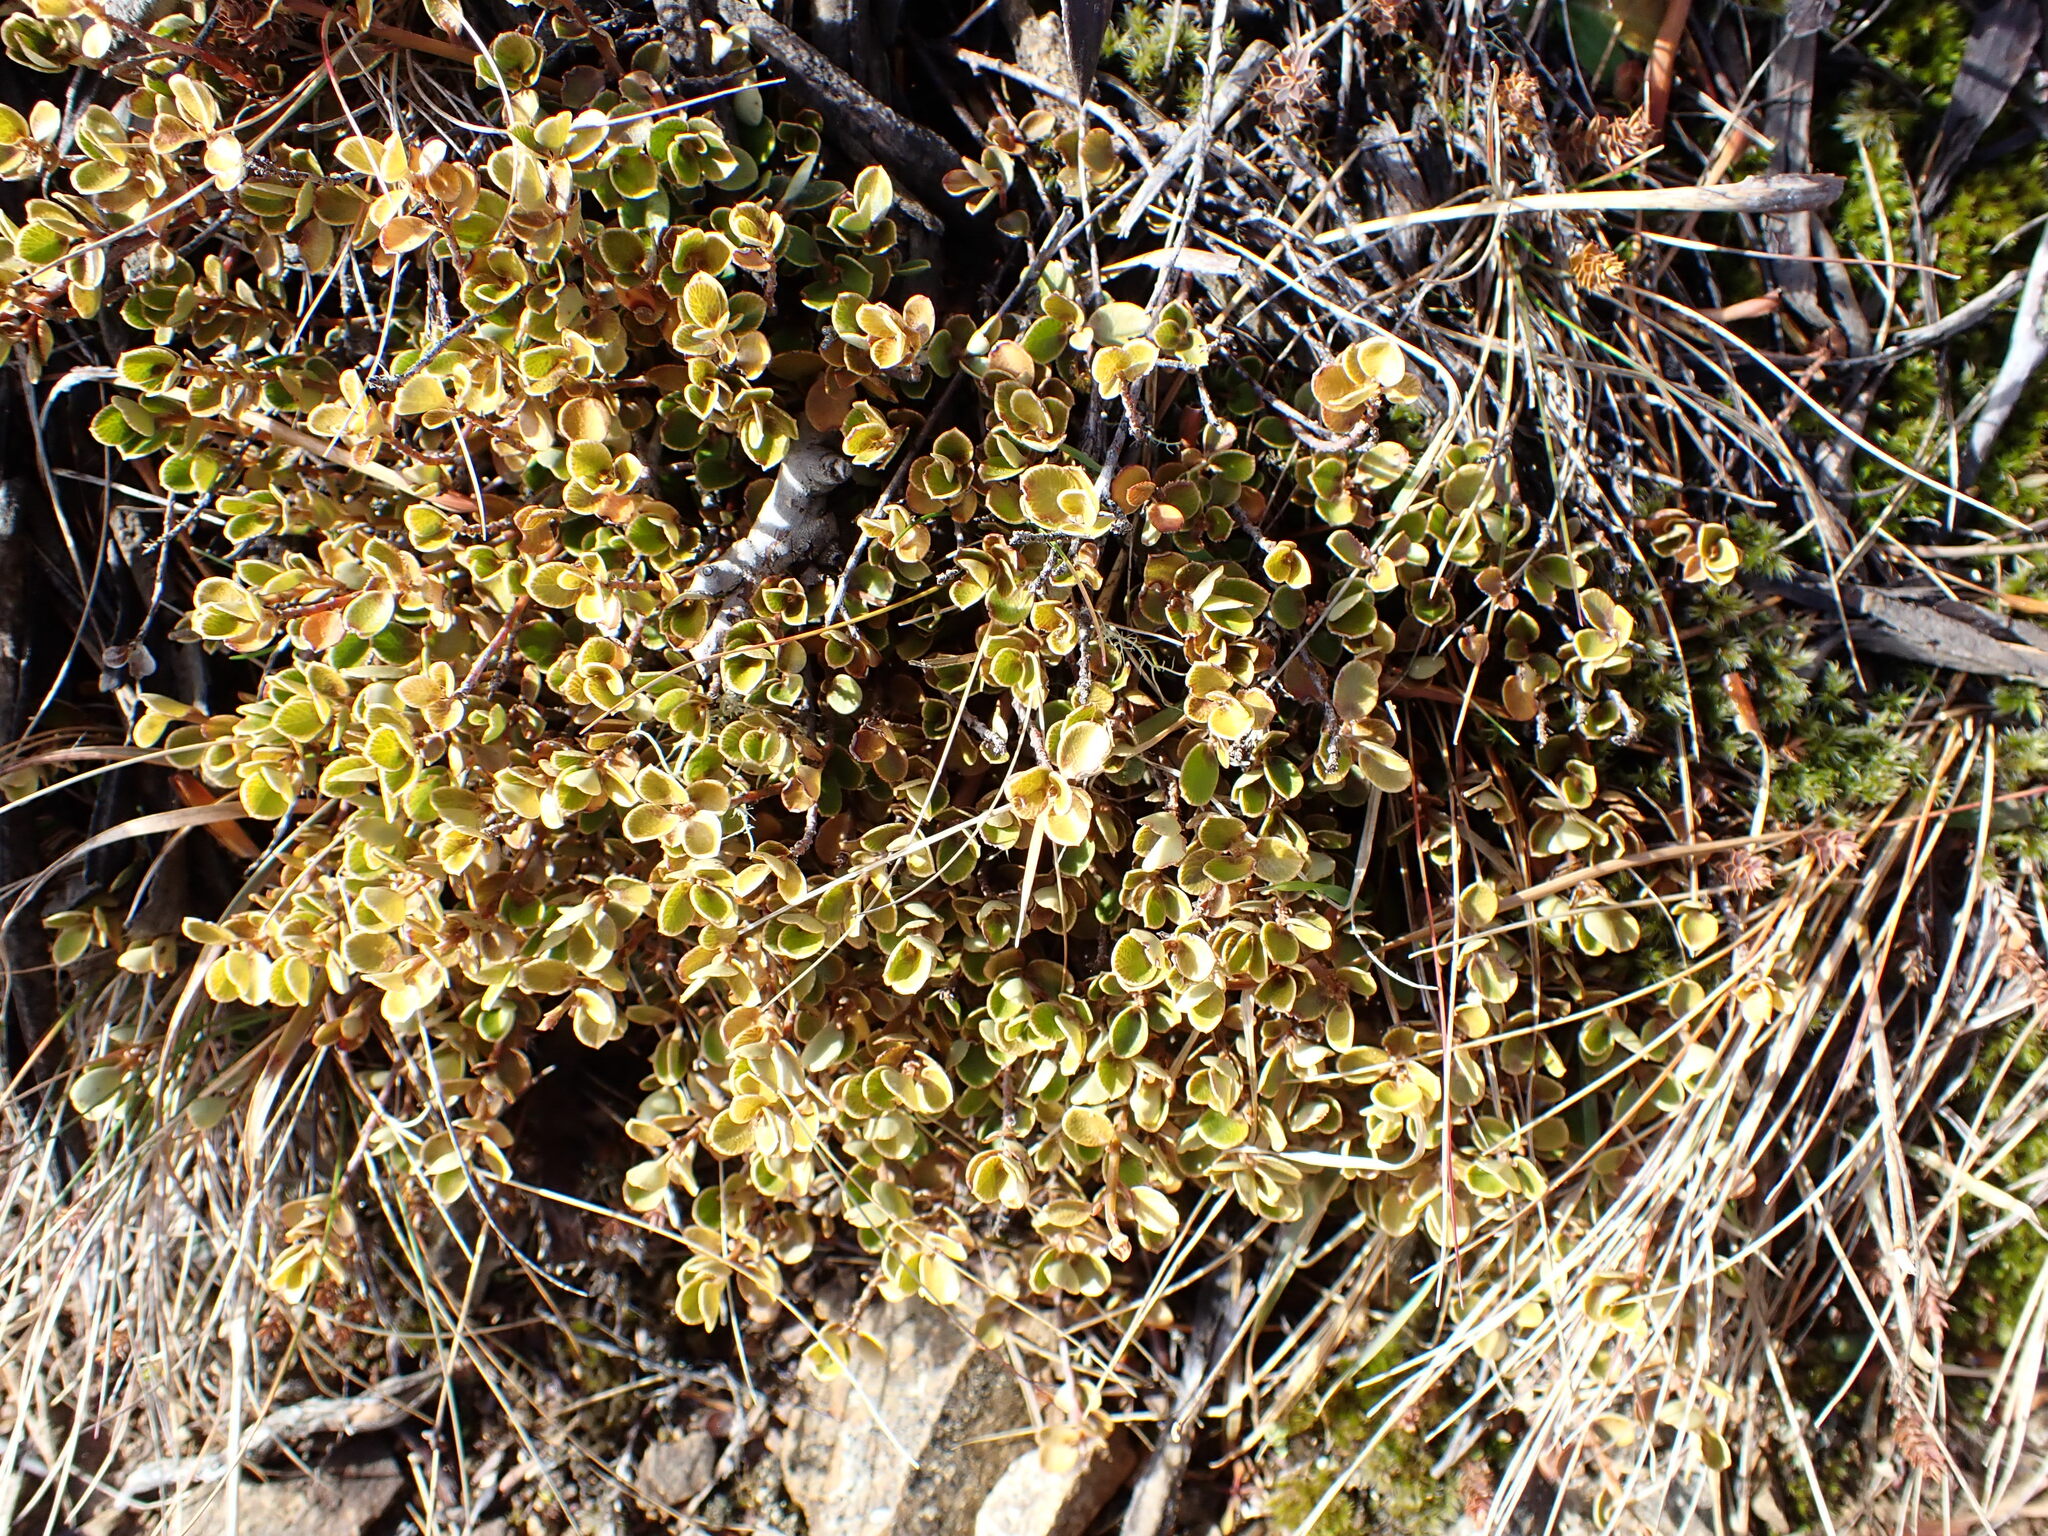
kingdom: Plantae
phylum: Tracheophyta
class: Magnoliopsida
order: Ericales
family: Primulaceae
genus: Myrsine
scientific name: Myrsine nummularia
